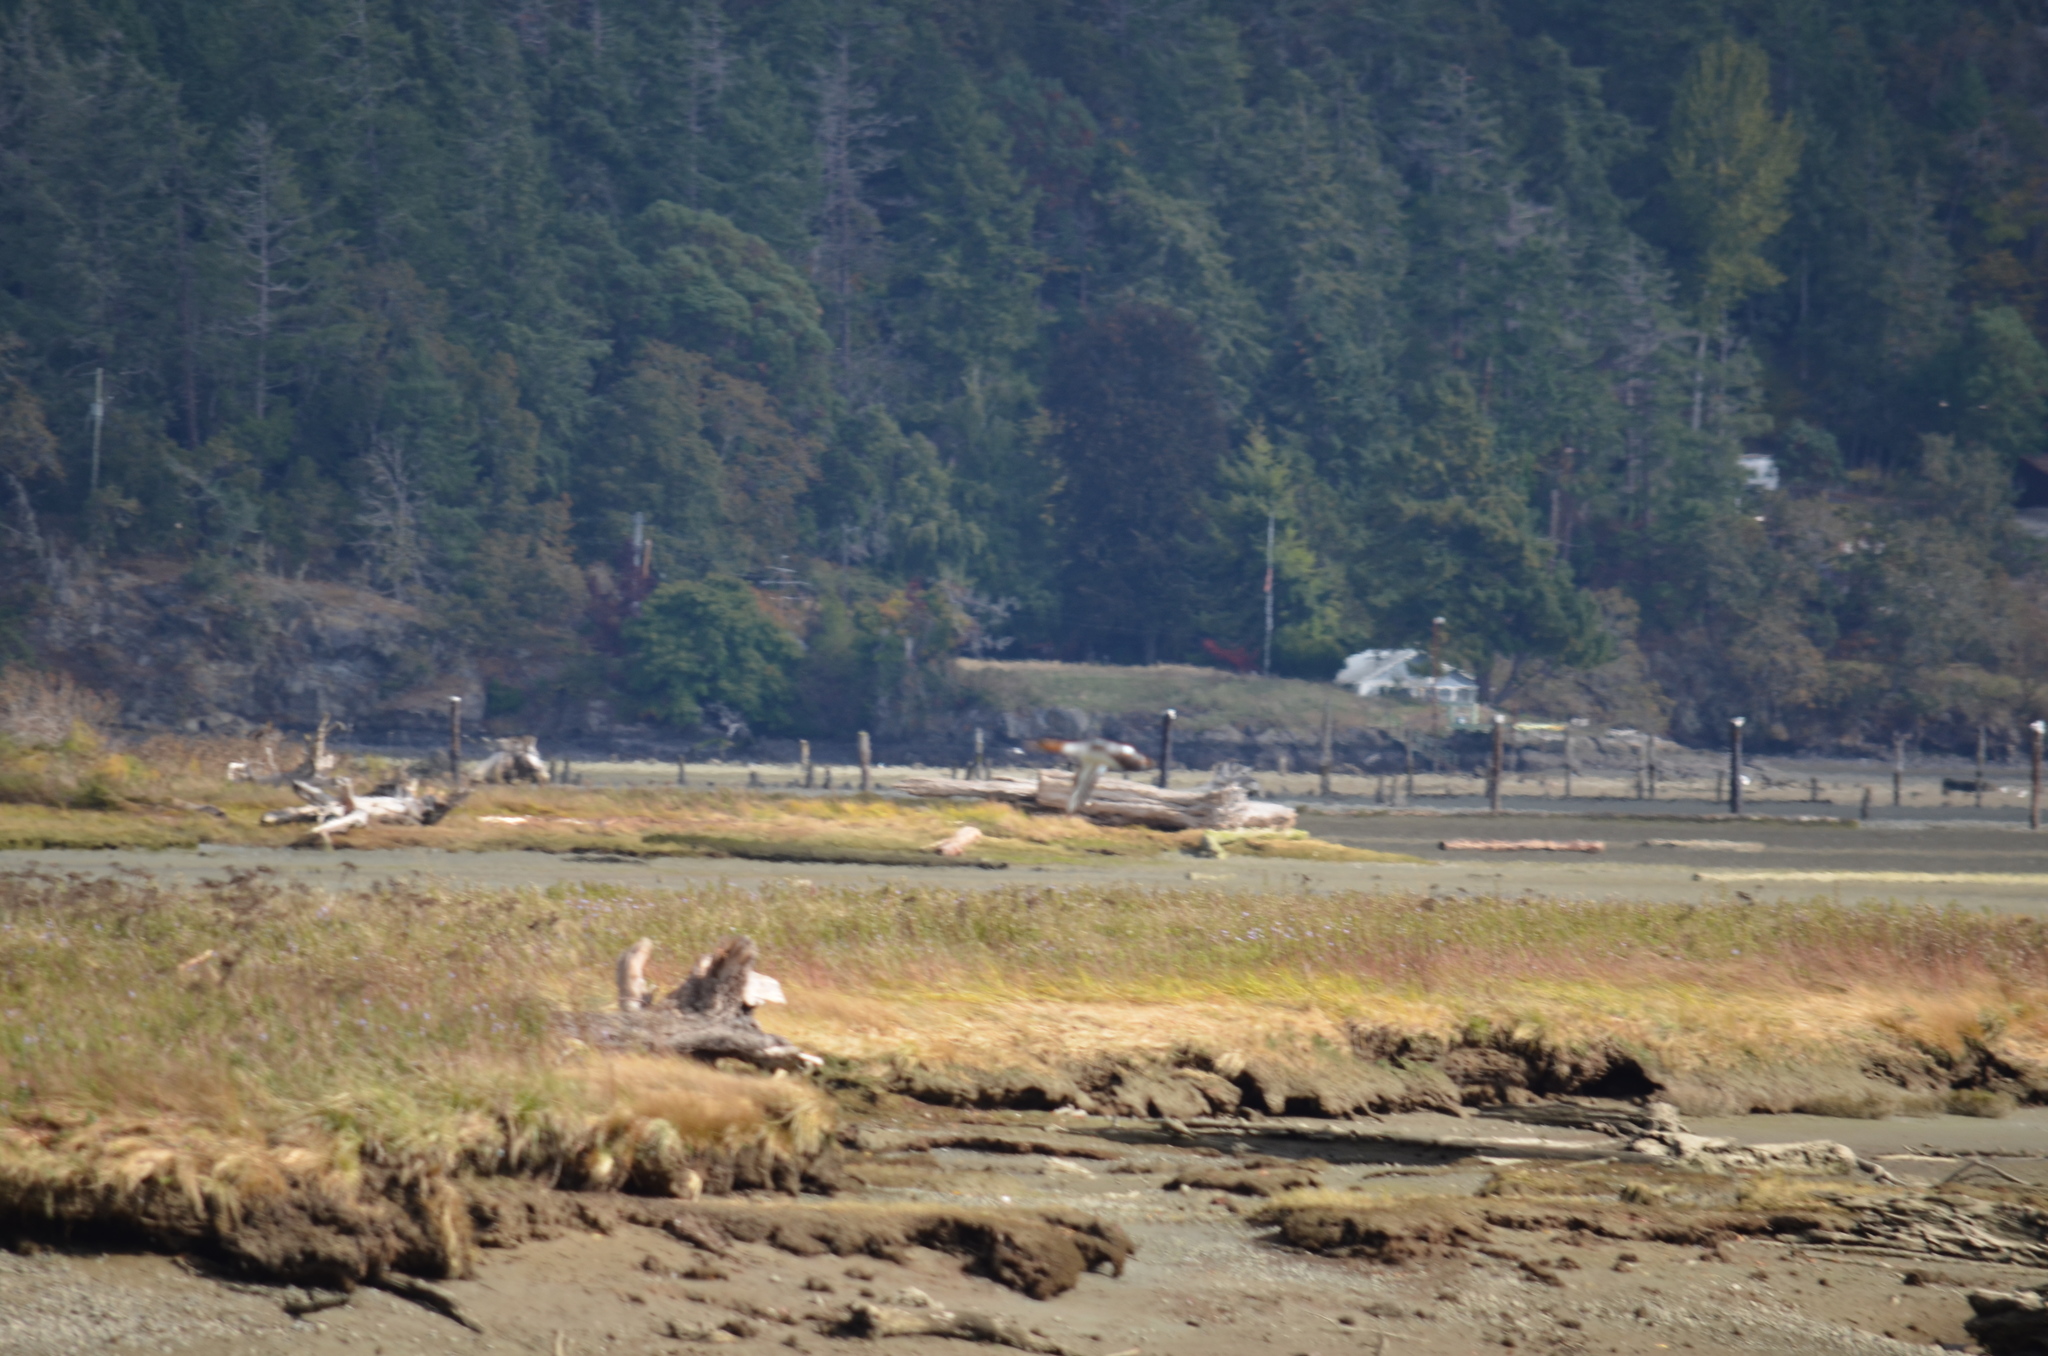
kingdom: Animalia
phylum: Chordata
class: Aves
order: Anseriformes
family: Anatidae
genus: Mergus
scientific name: Mergus merganser
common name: Common merganser
